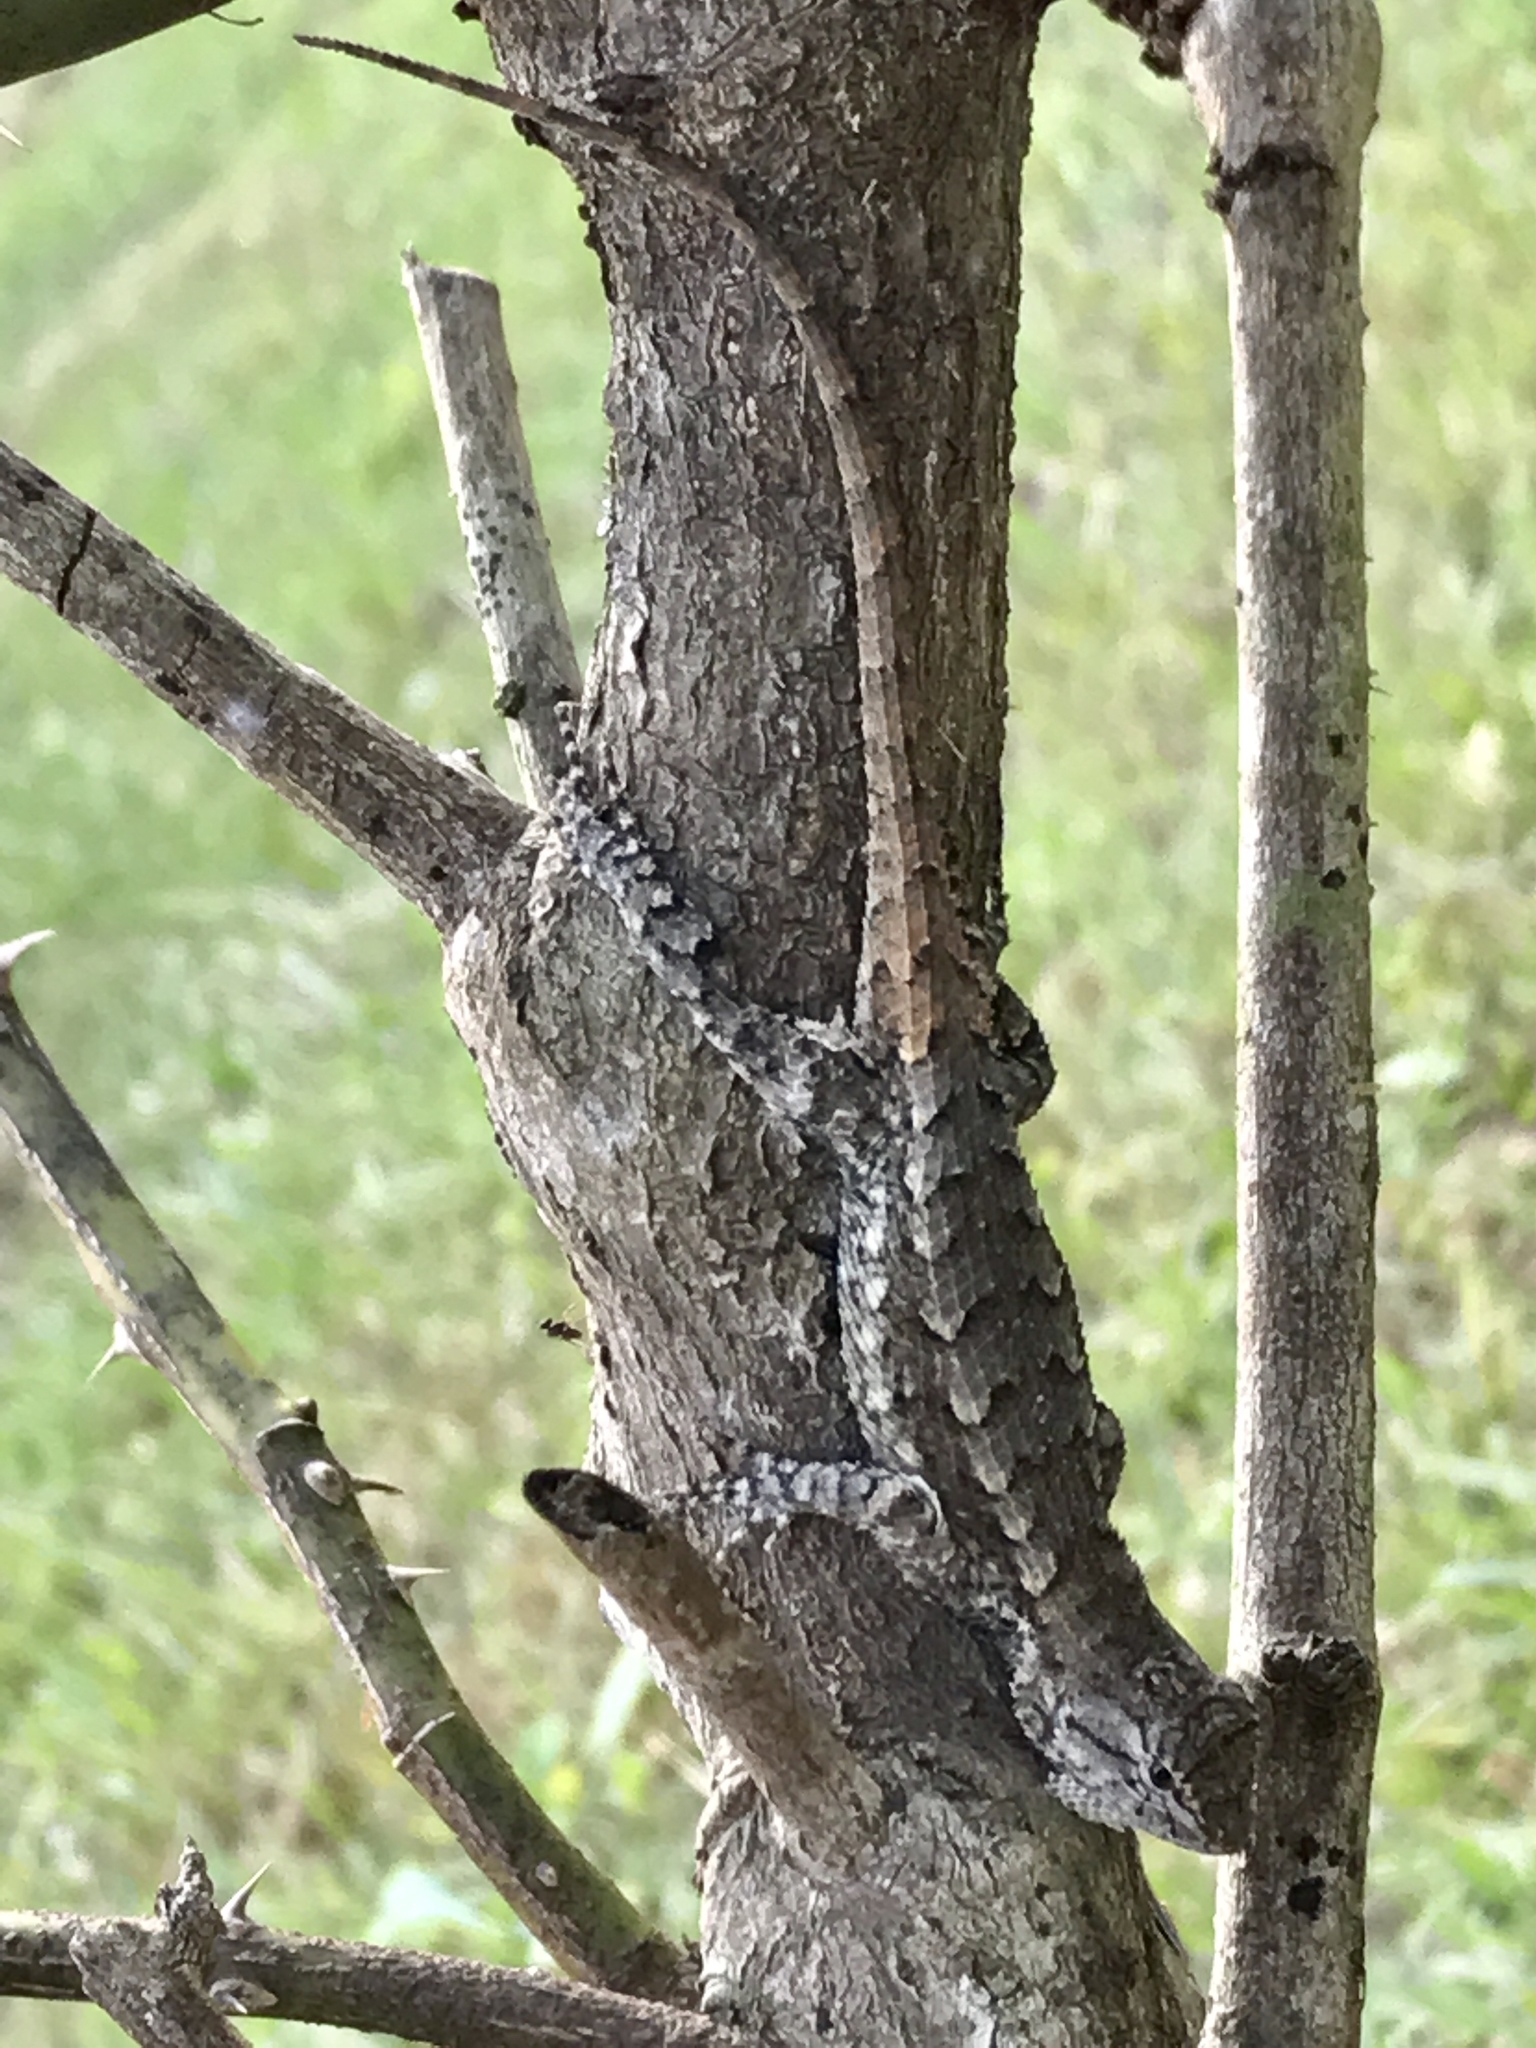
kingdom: Animalia
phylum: Chordata
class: Squamata
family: Phrynosomatidae
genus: Sceloporus
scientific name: Sceloporus consobrinus
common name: Southern prairie lizard
